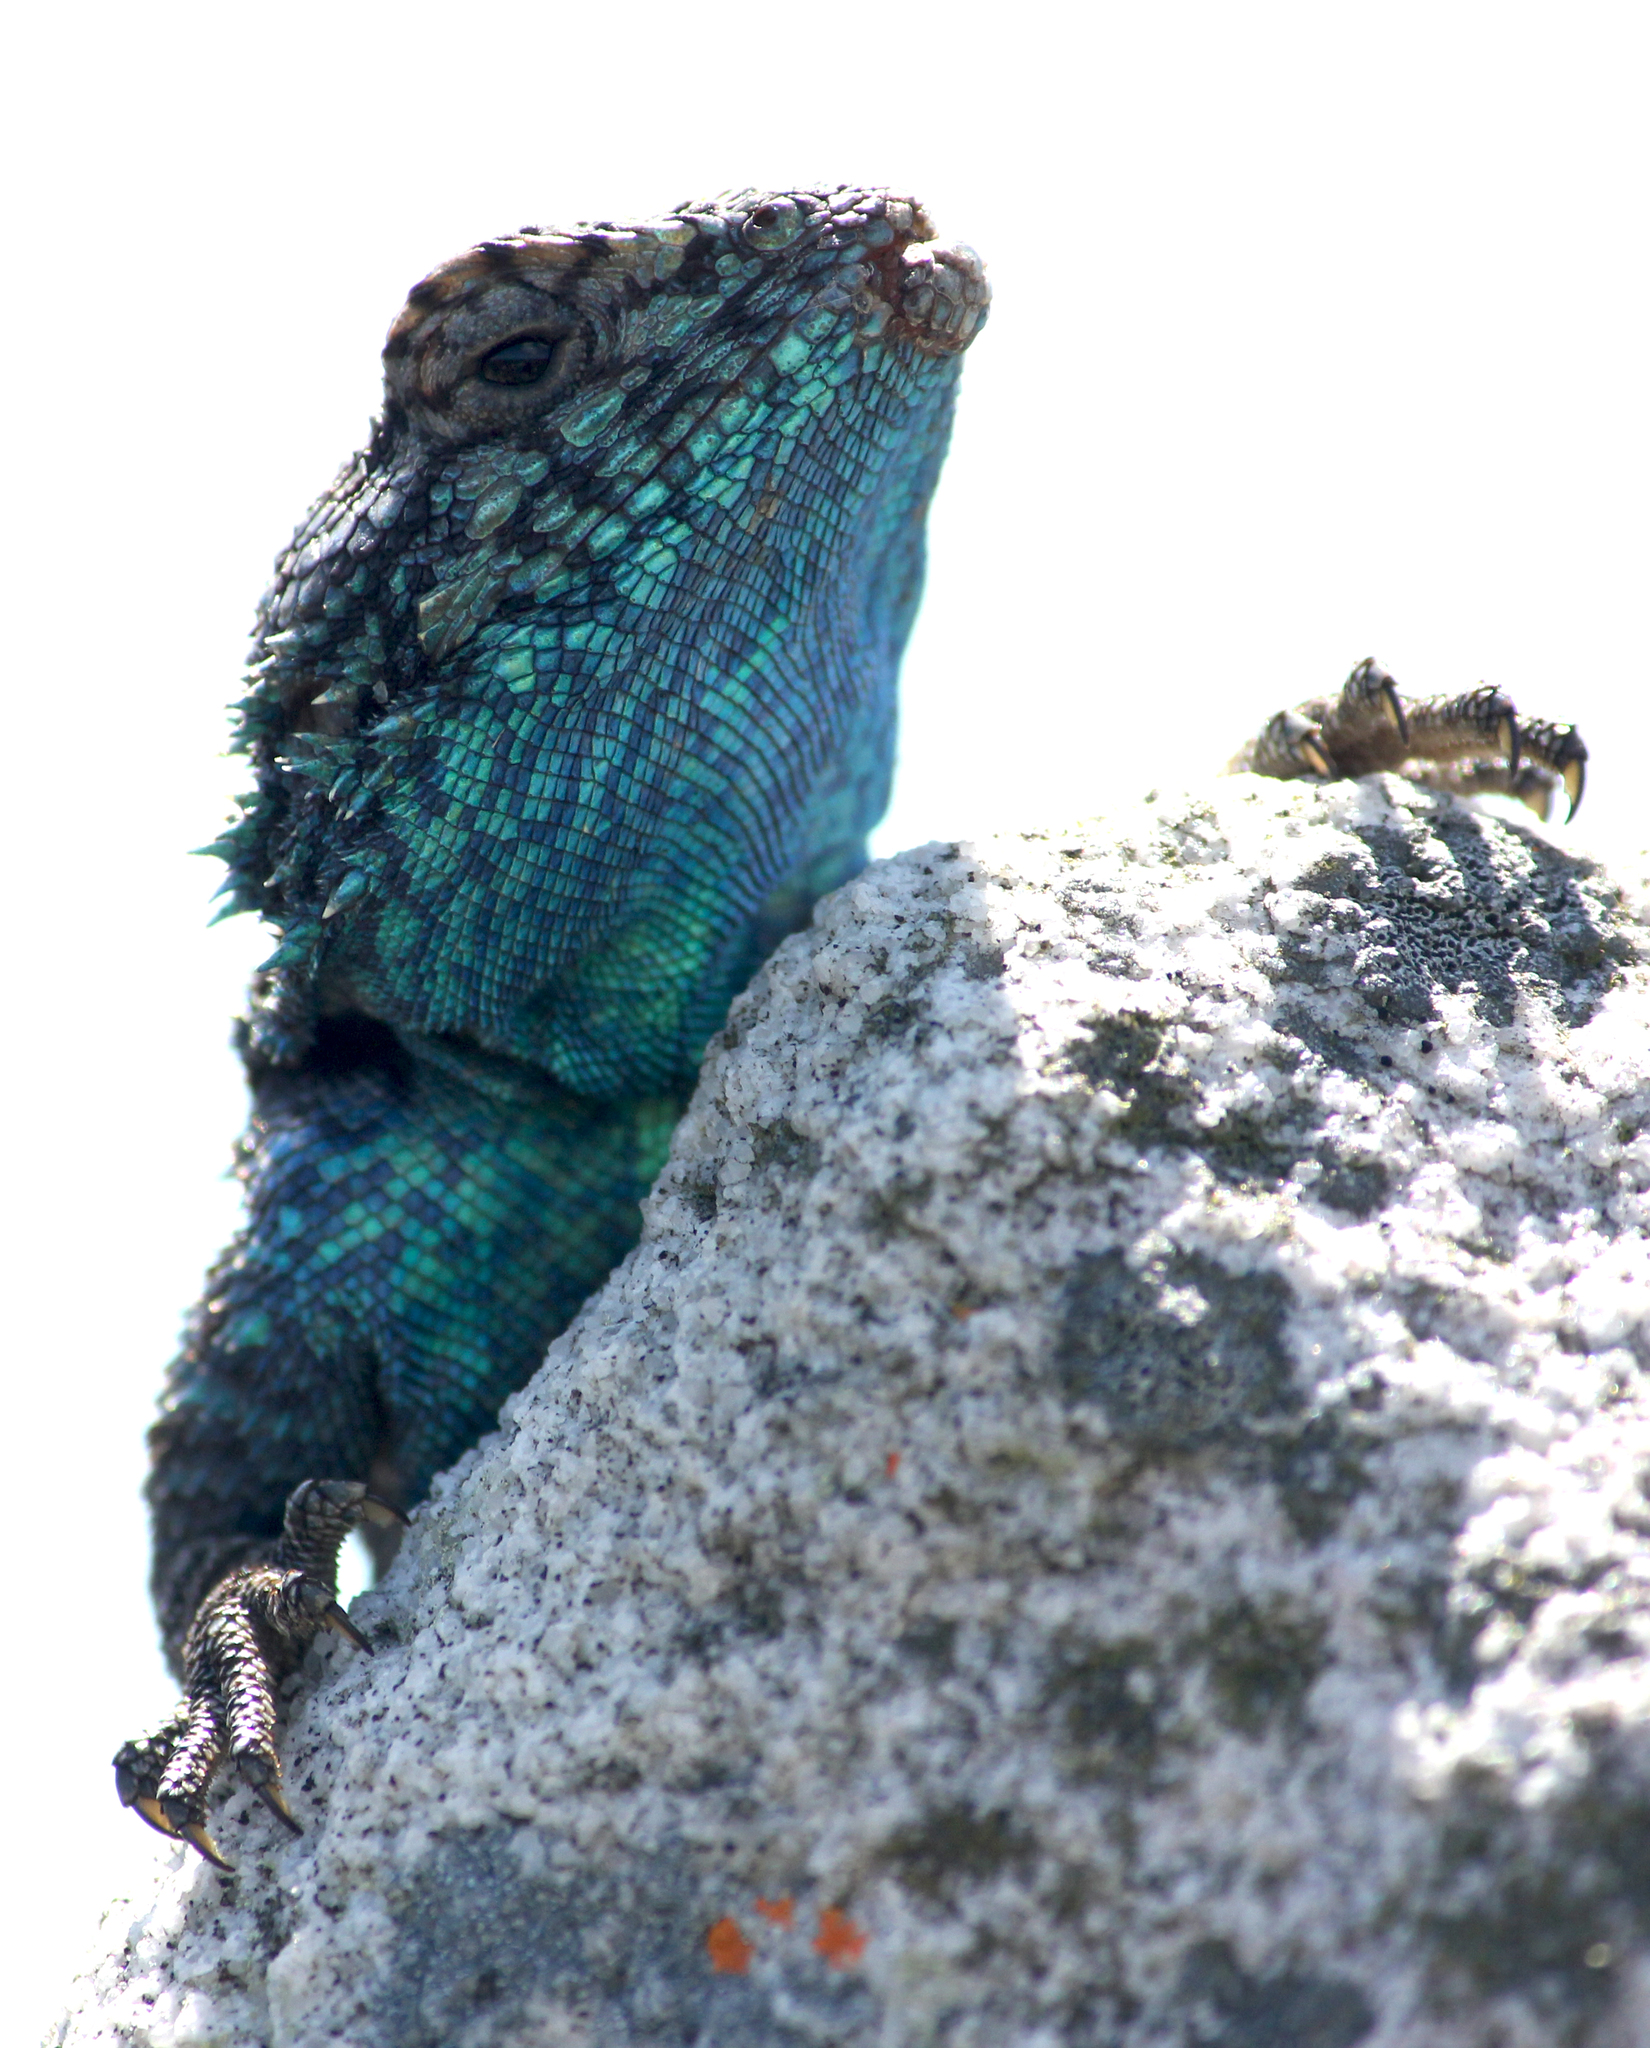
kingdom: Animalia
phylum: Chordata
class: Squamata
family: Agamidae
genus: Agama
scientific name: Agama atra
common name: Southern african rock agama
